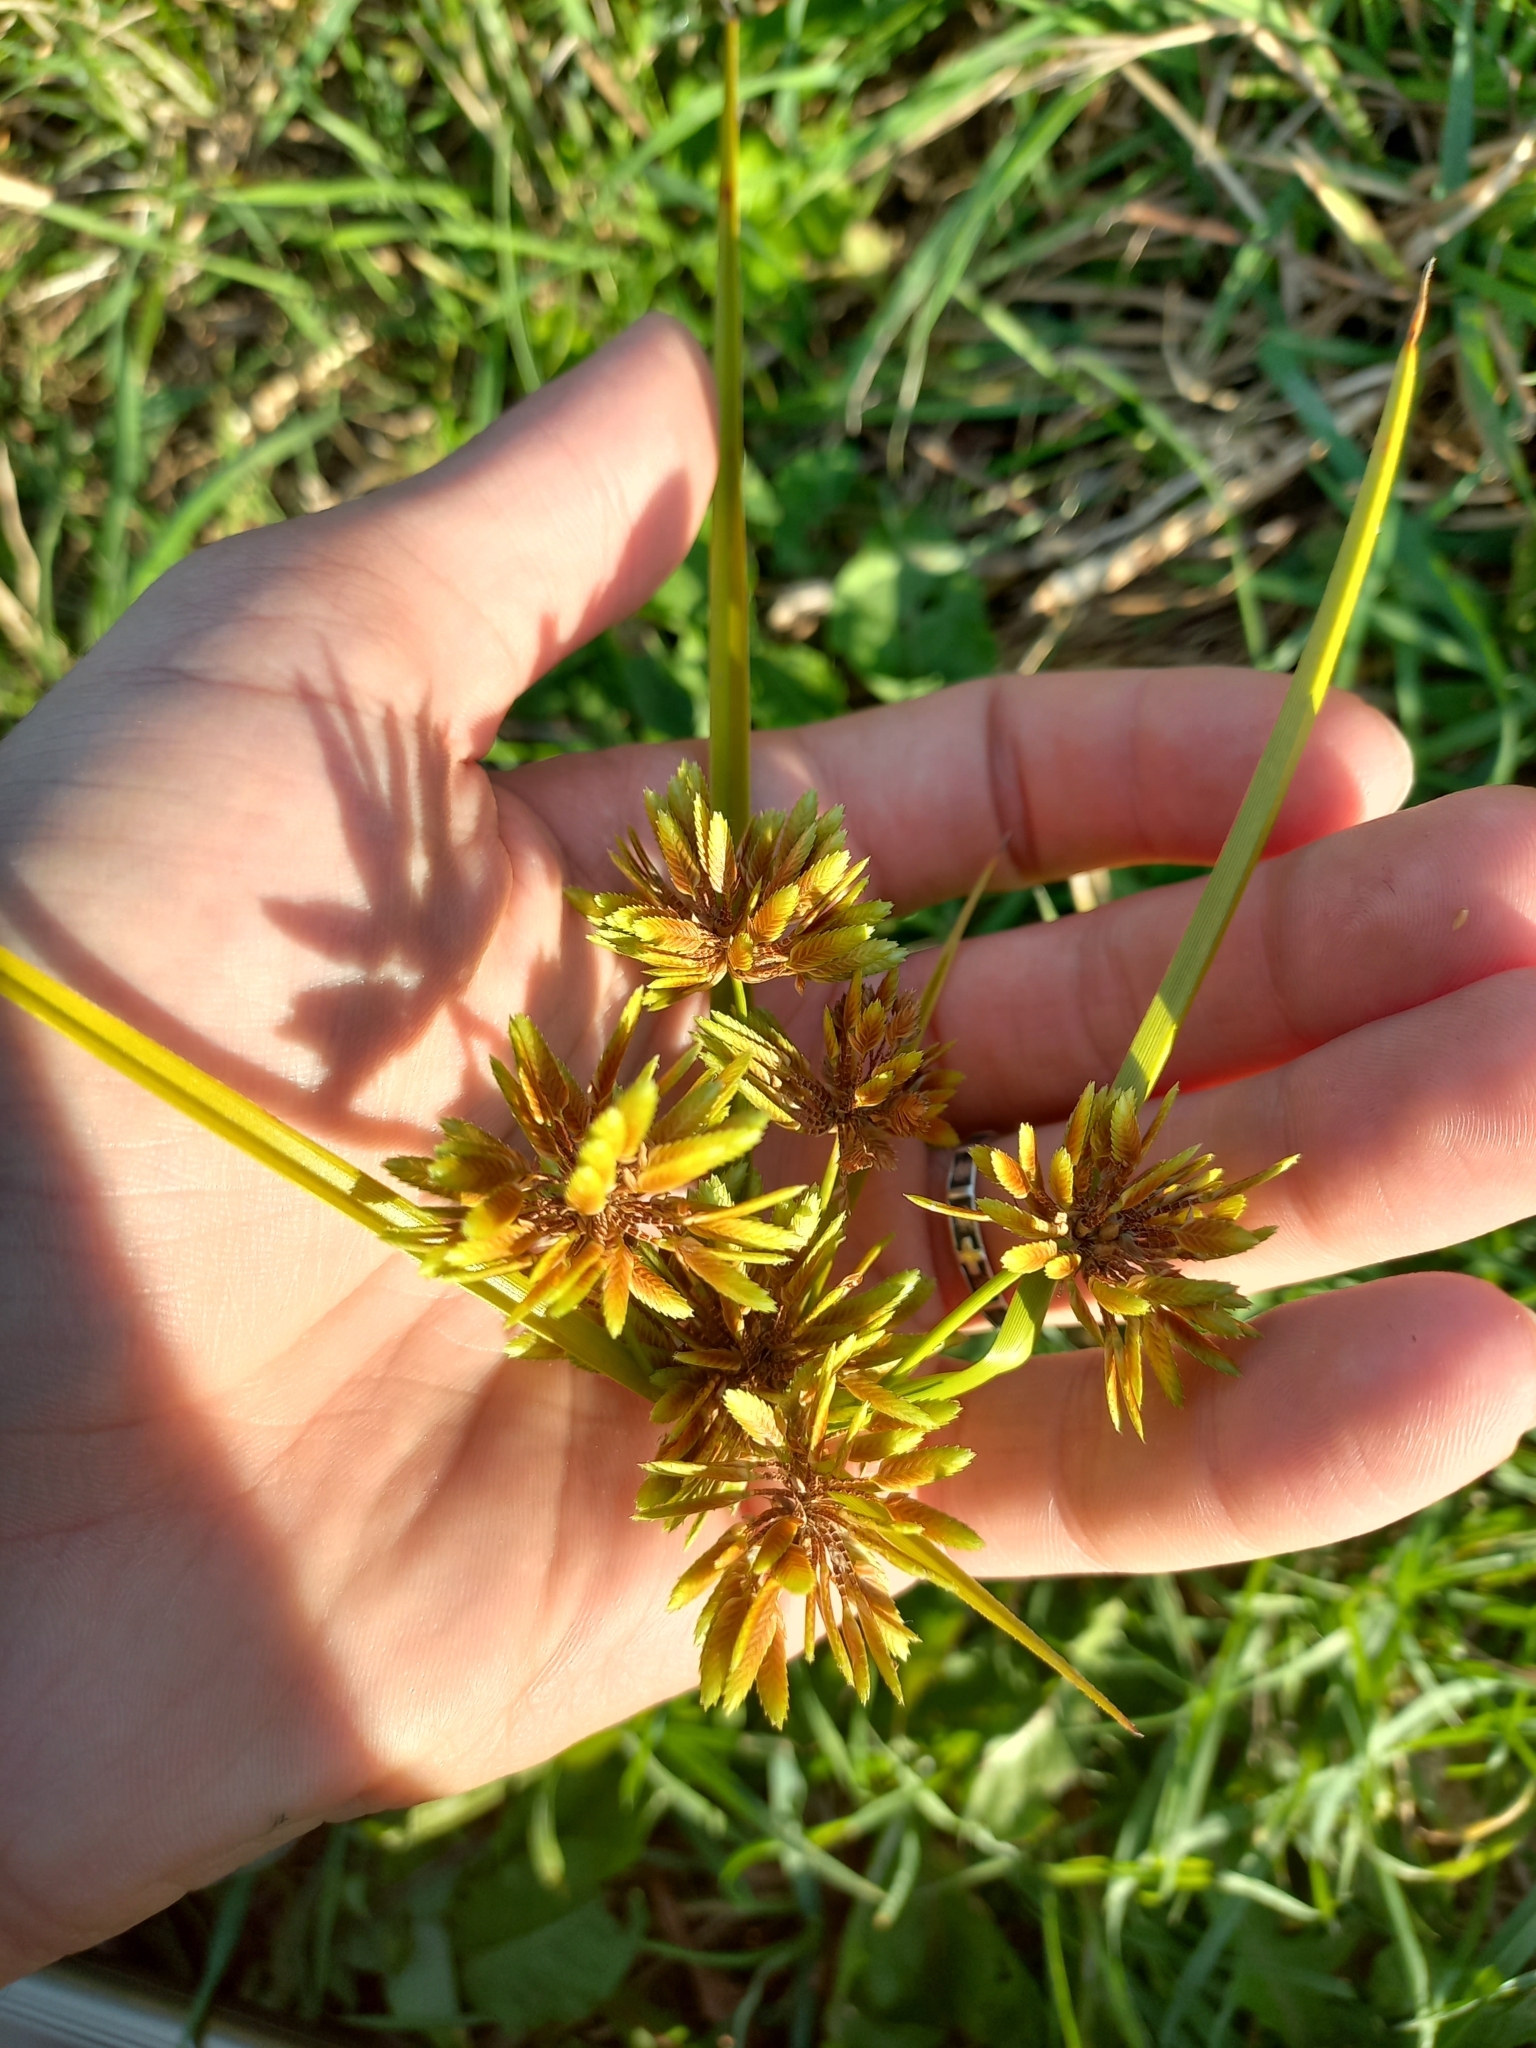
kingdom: Plantae
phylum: Tracheophyta
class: Liliopsida
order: Poales
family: Cyperaceae
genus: Cyperus
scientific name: Cyperus eragrostis
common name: Tall flatsedge
